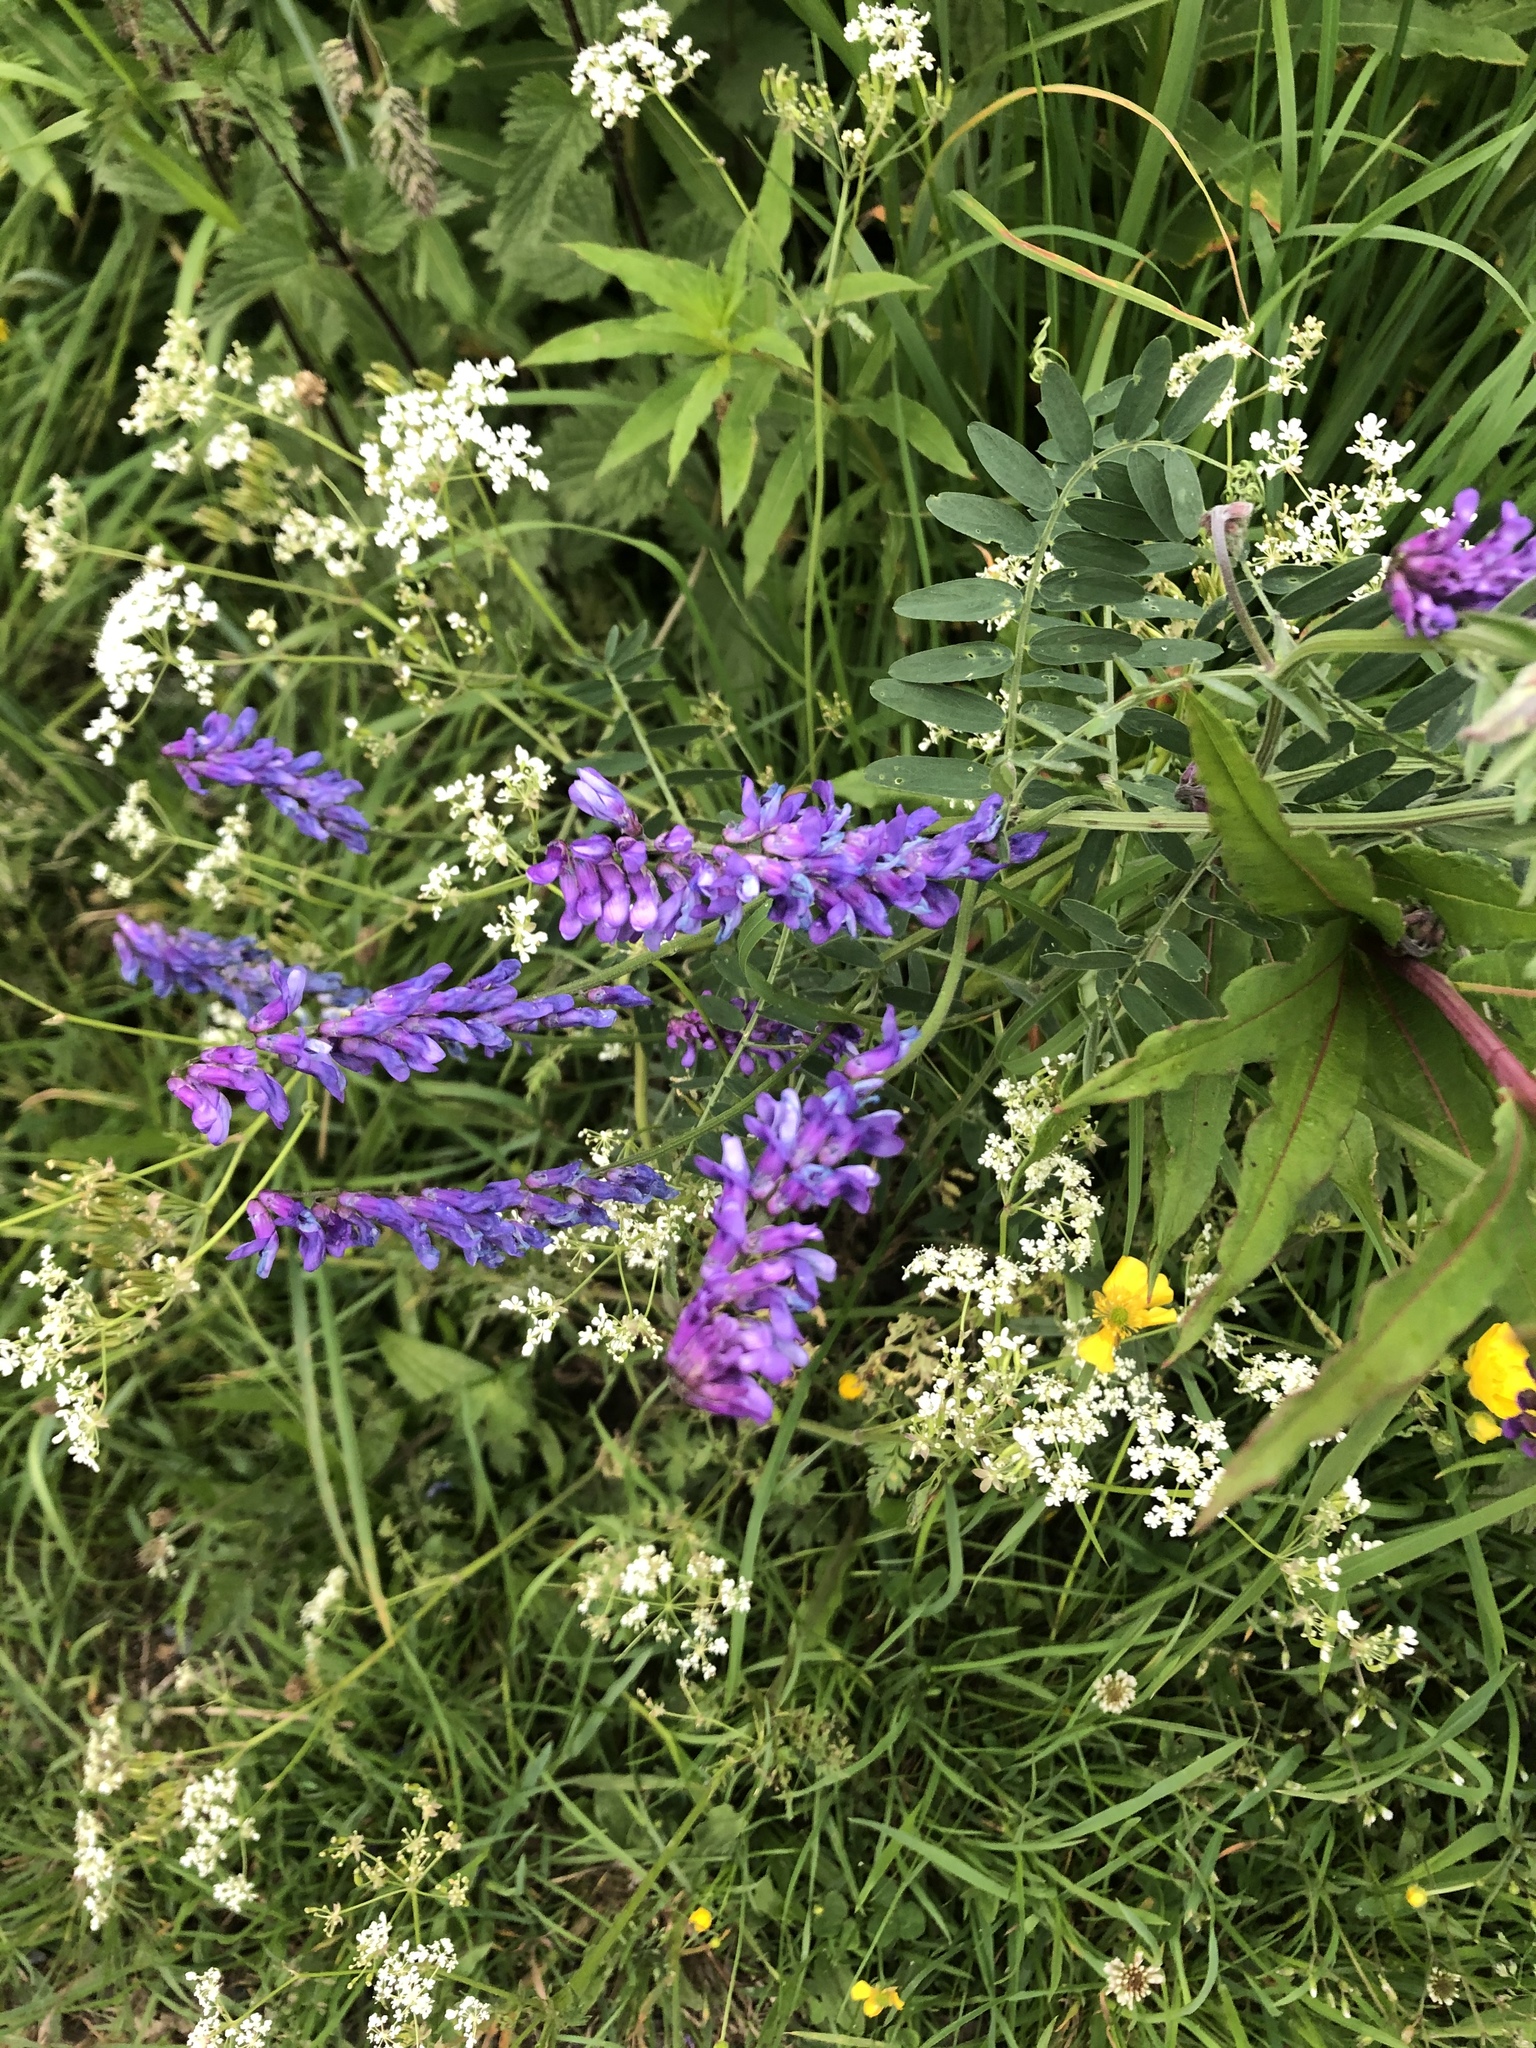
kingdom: Plantae
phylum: Tracheophyta
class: Magnoliopsida
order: Fabales
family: Fabaceae
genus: Vicia
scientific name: Vicia cracca
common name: Bird vetch
